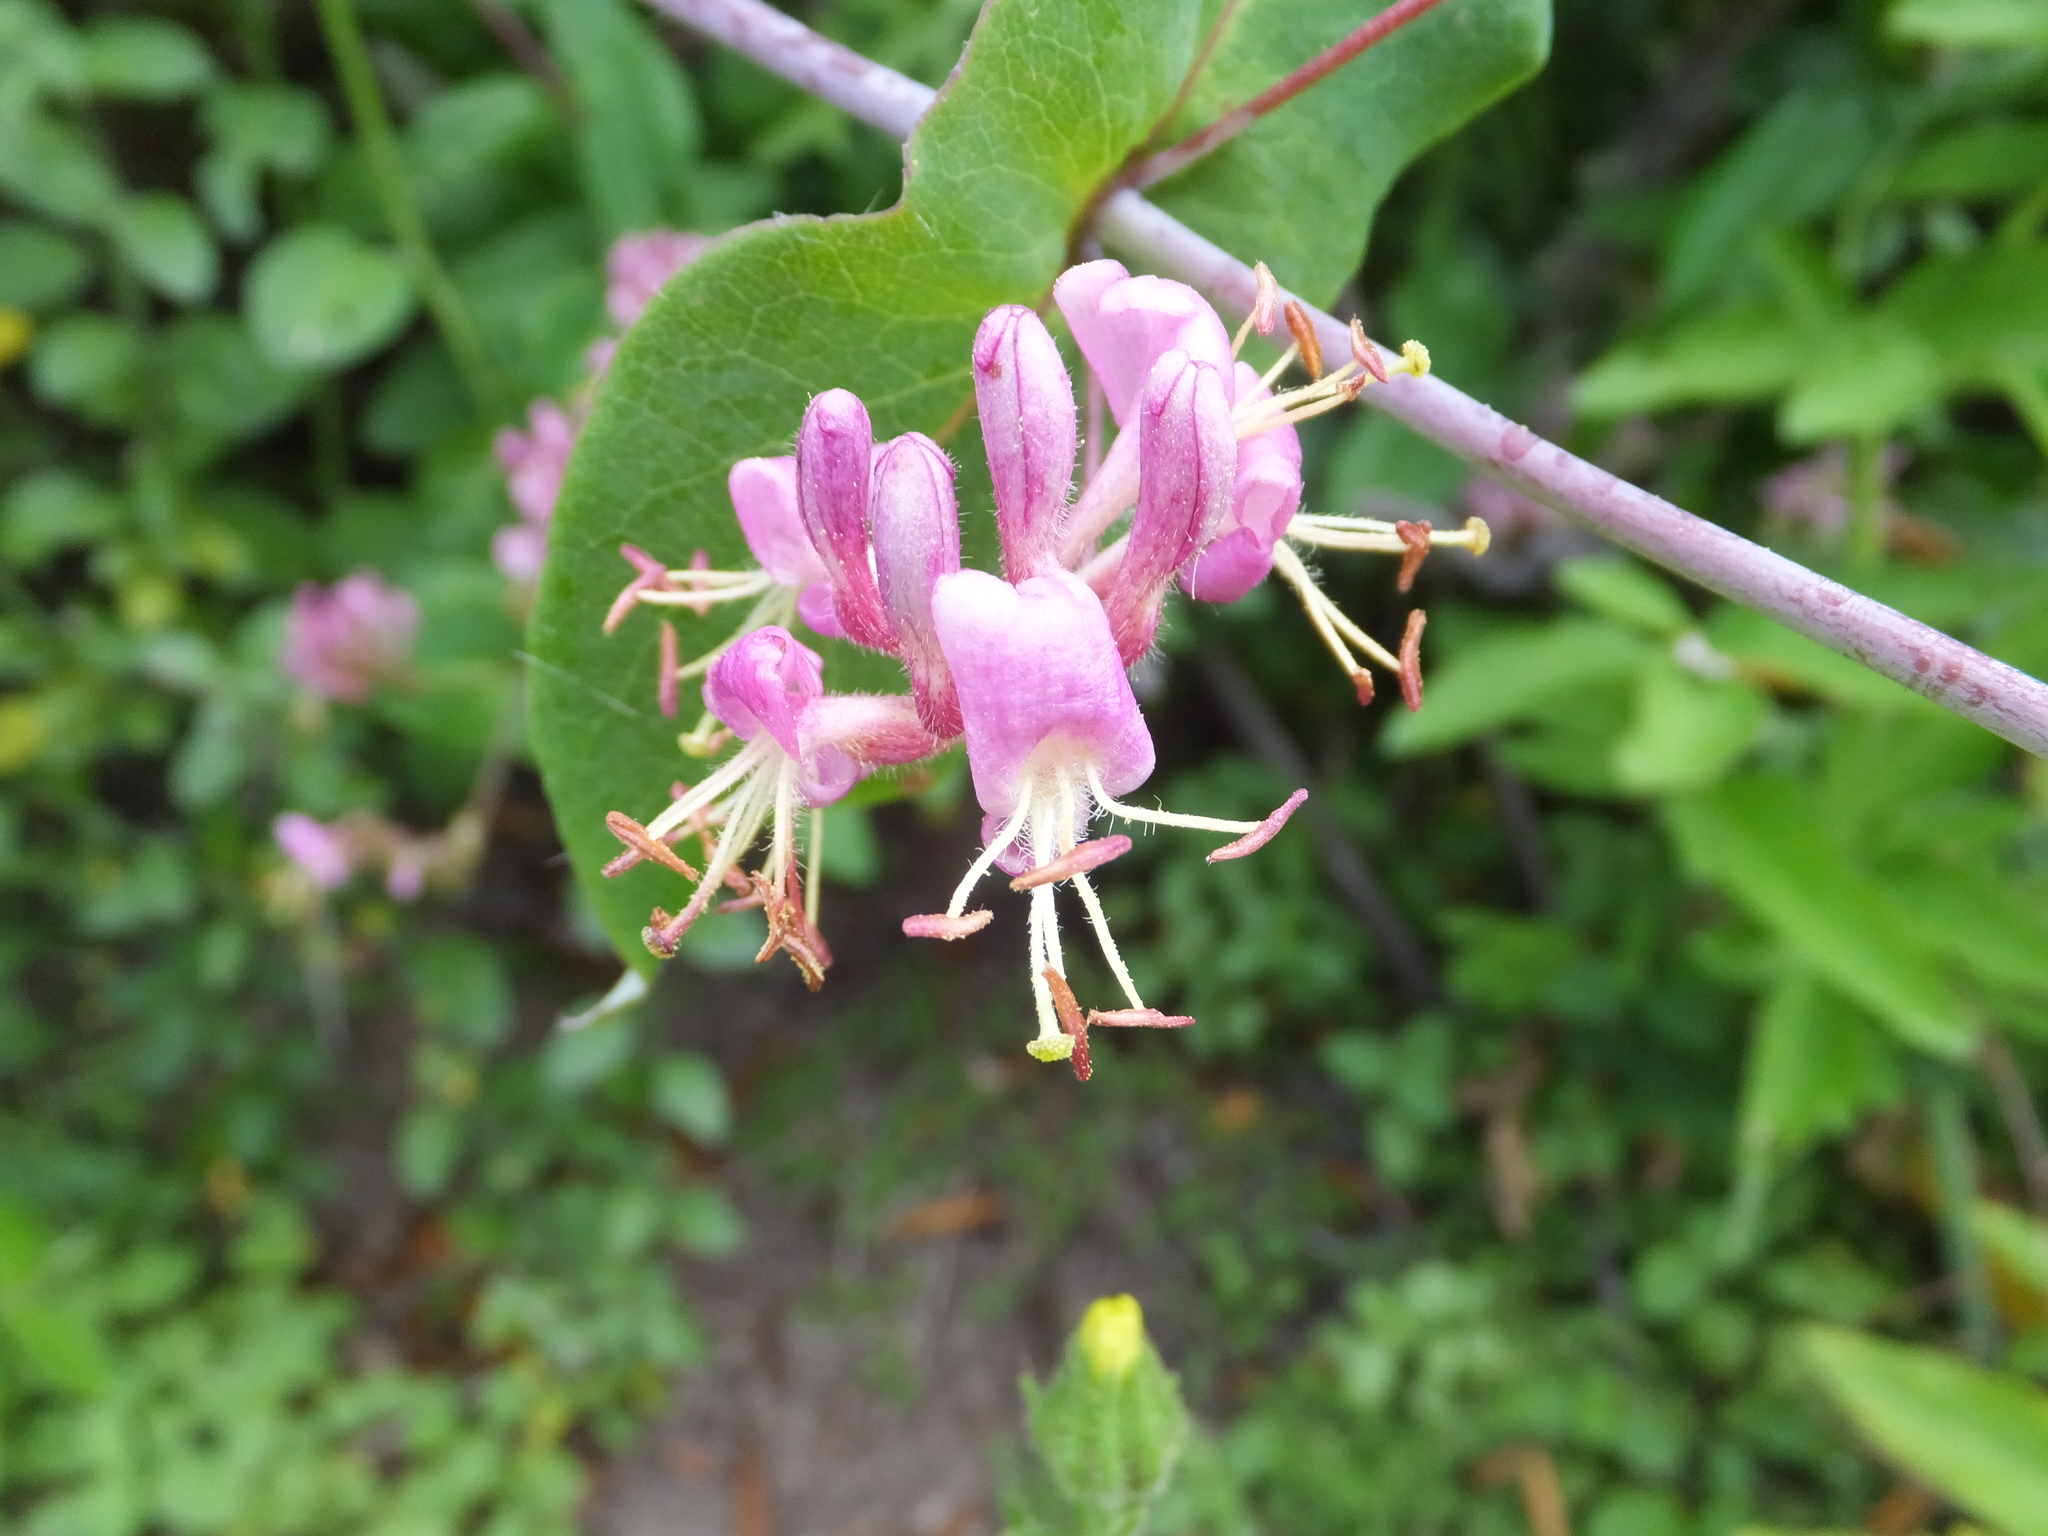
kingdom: Plantae
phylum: Tracheophyta
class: Magnoliopsida
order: Dipsacales
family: Caprifoliaceae
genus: Lonicera
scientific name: Lonicera hispidula
